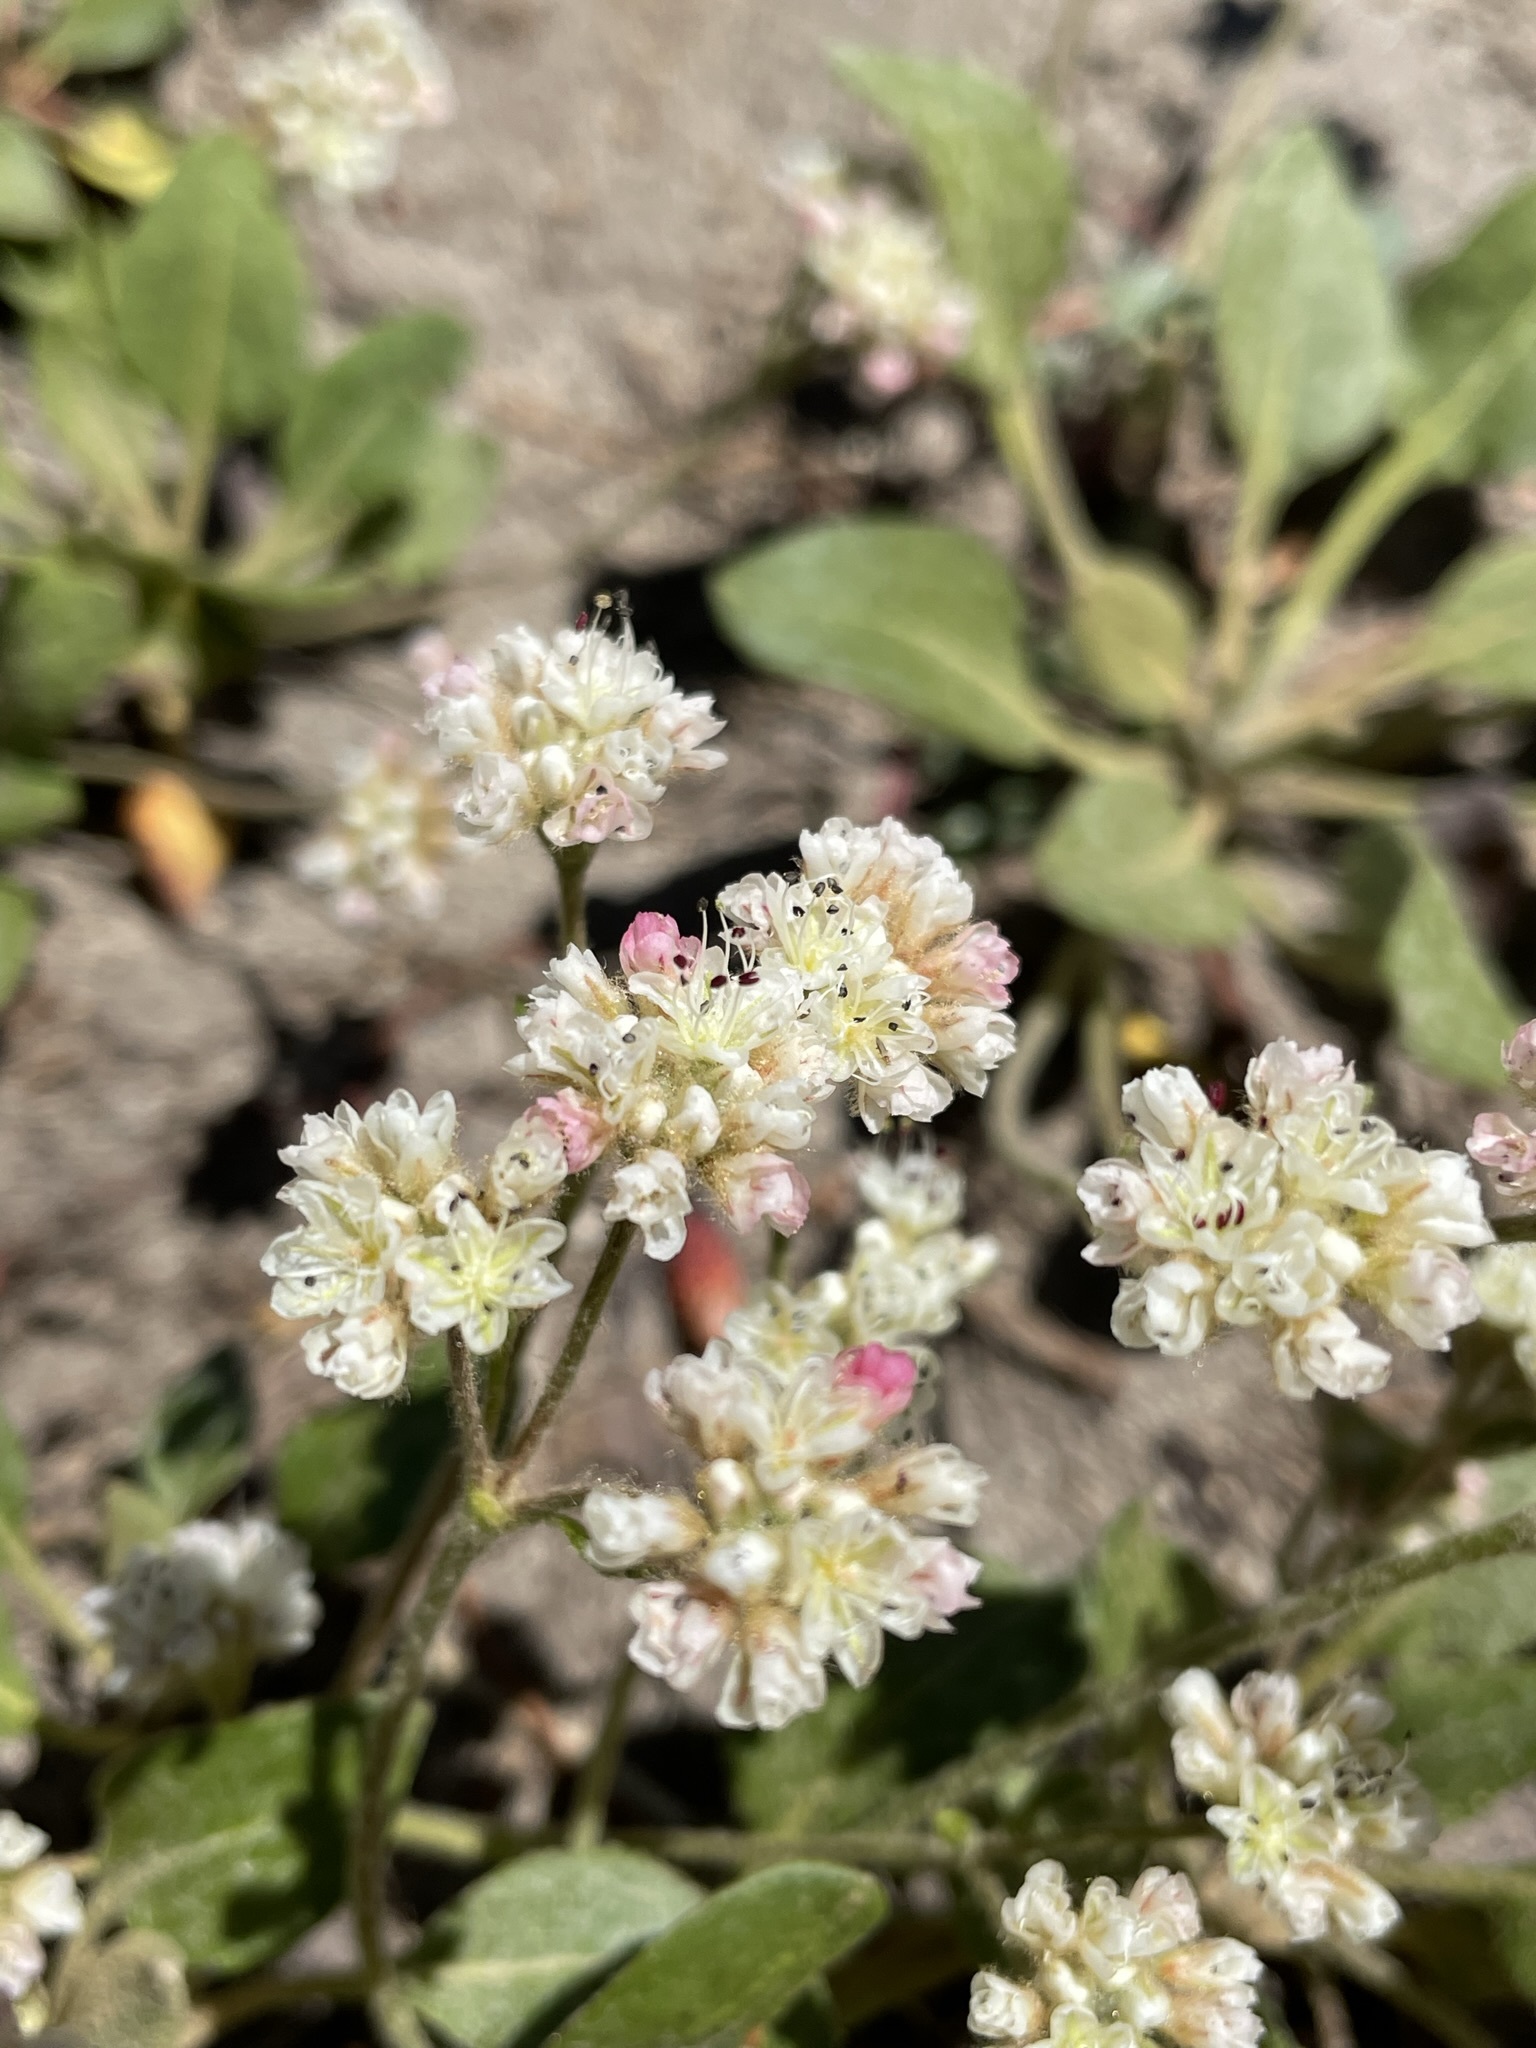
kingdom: Plantae
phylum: Tracheophyta
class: Magnoliopsida
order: Caryophyllales
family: Polygonaceae
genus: Eriogonum
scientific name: Eriogonum pyrolifolium
